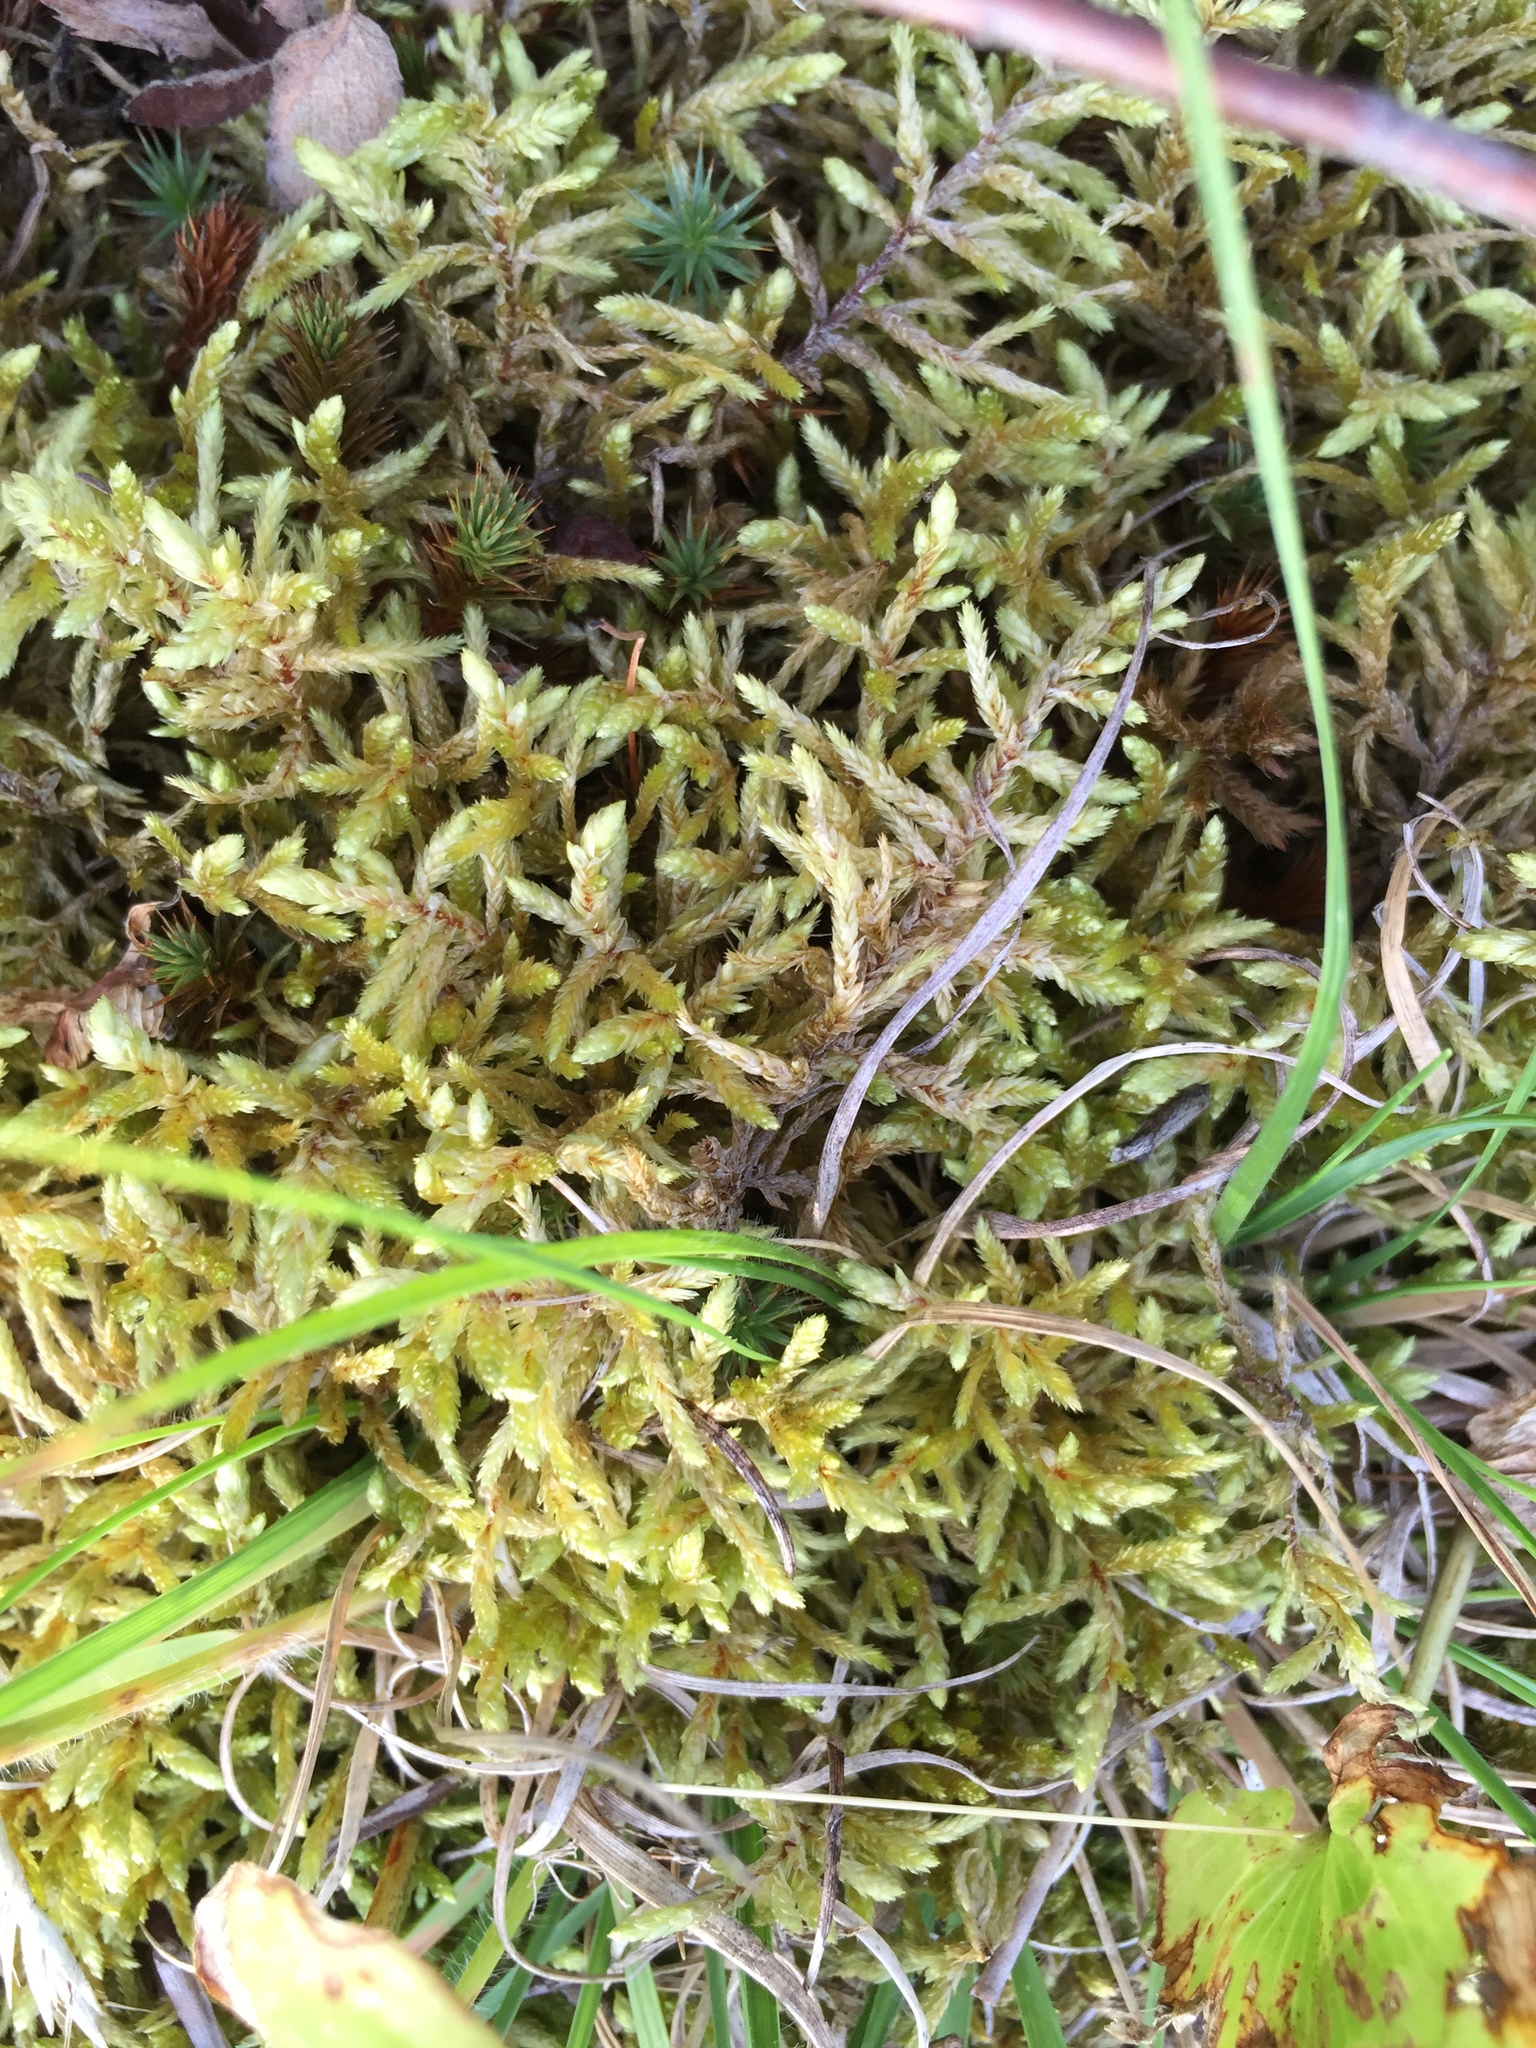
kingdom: Plantae
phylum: Bryophyta
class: Bryopsida
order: Hypnales
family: Hylocomiaceae
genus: Pleurozium
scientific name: Pleurozium schreberi
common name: Red-stemmed feather moss
